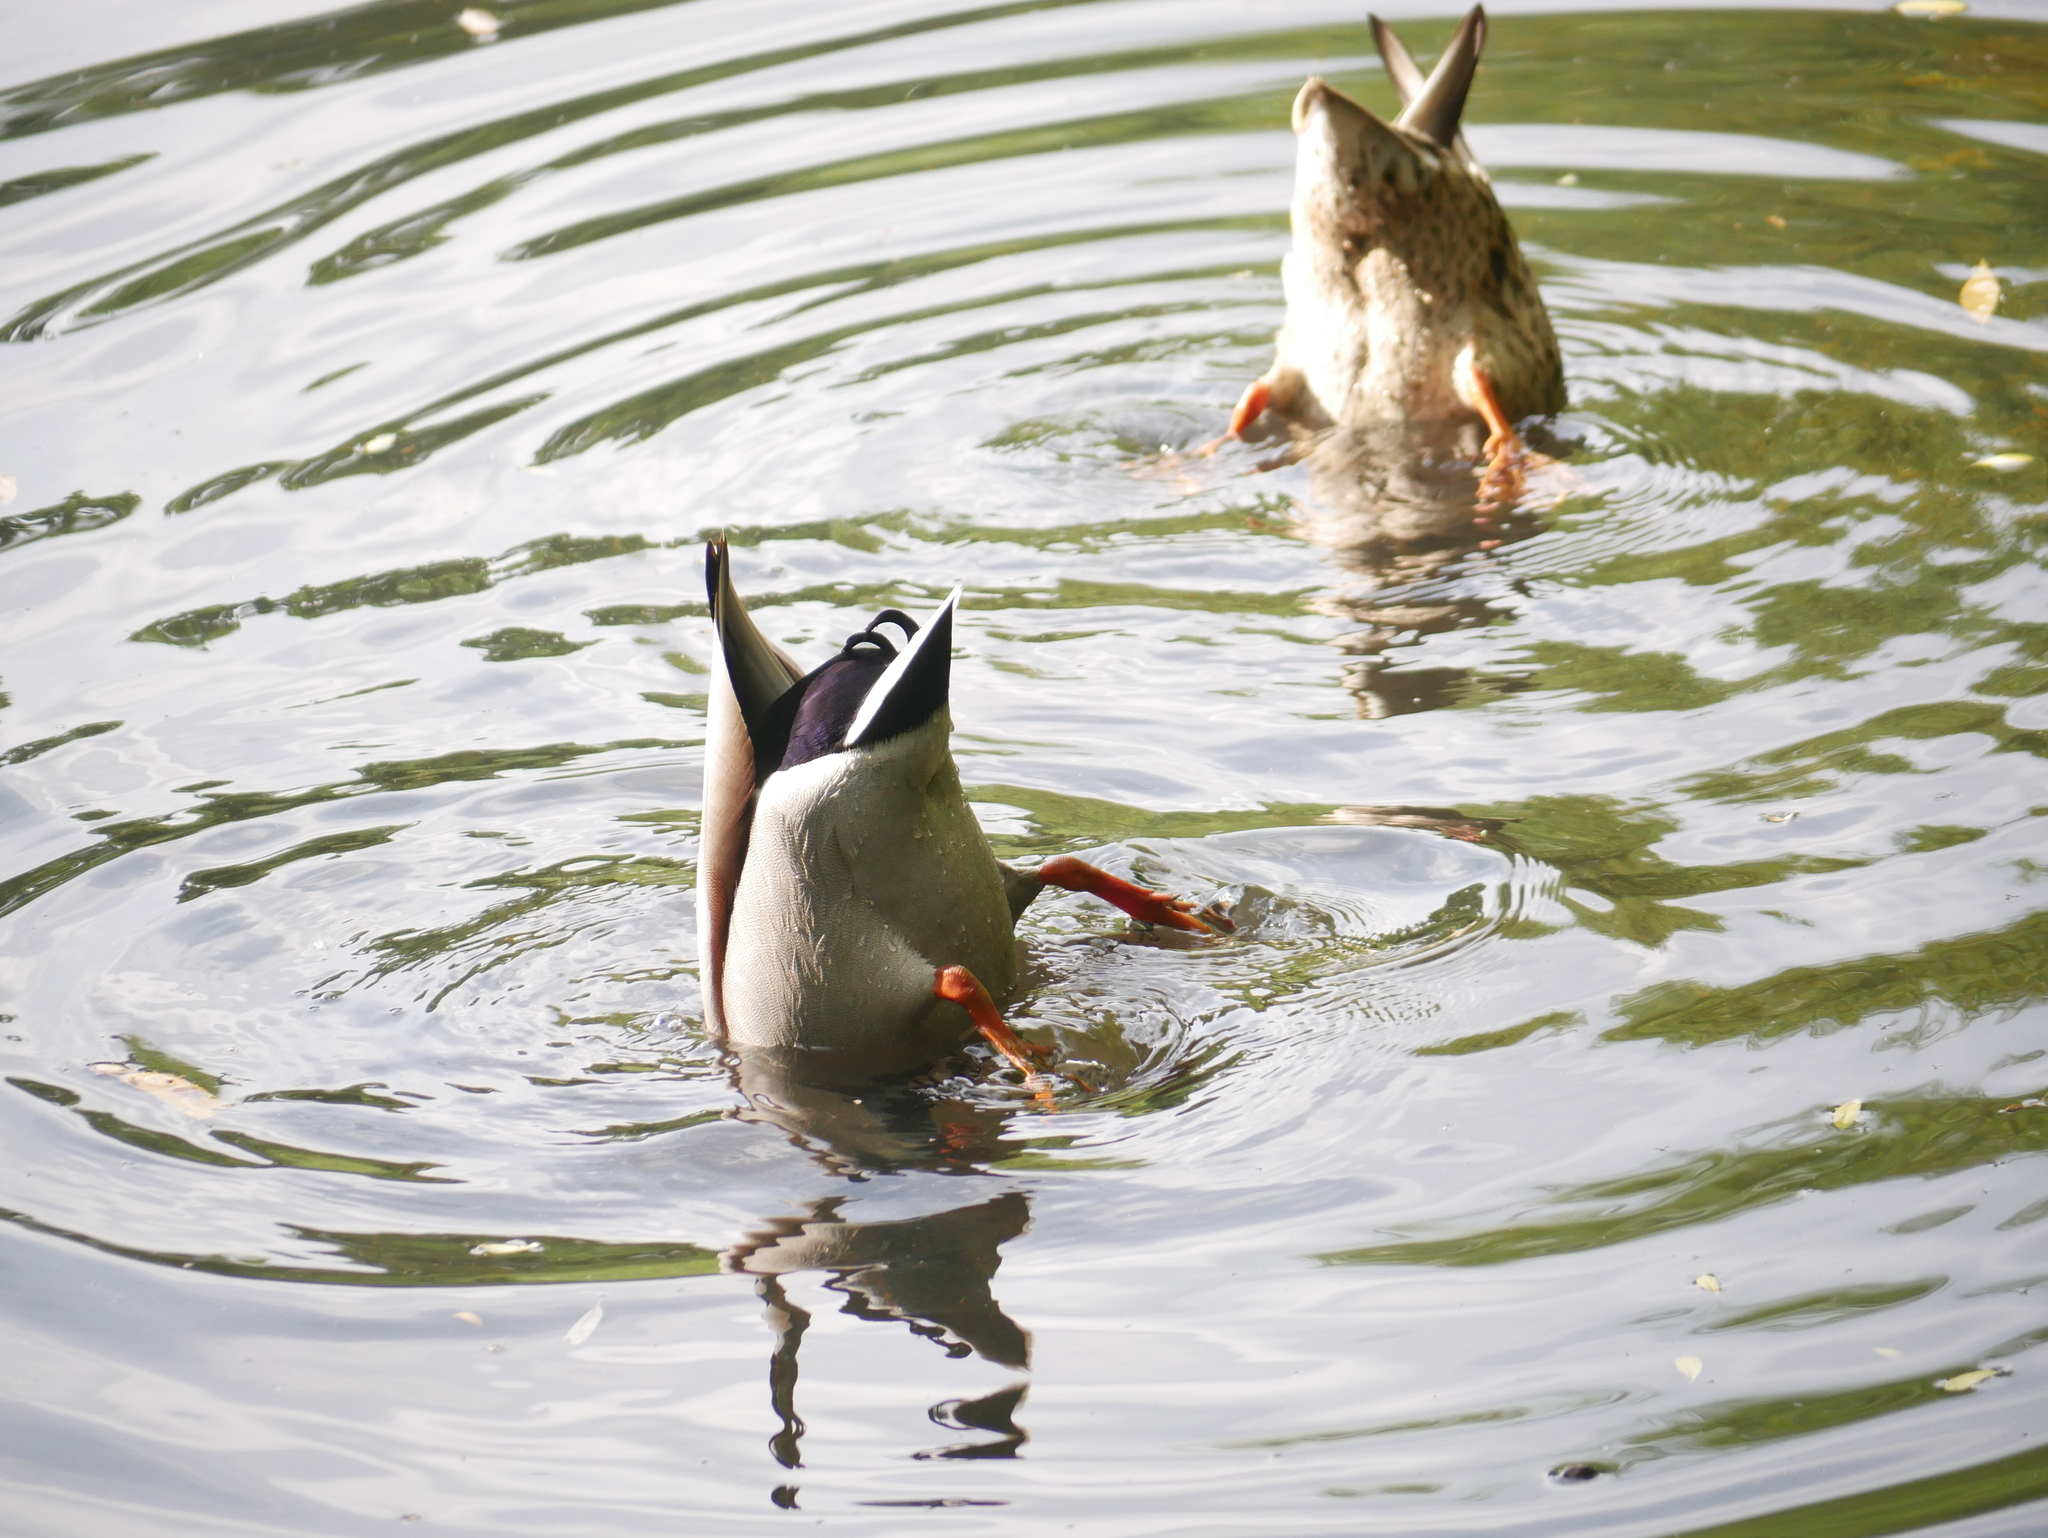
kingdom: Animalia
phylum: Chordata
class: Aves
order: Anseriformes
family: Anatidae
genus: Anas
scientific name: Anas platyrhynchos
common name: Mallard
